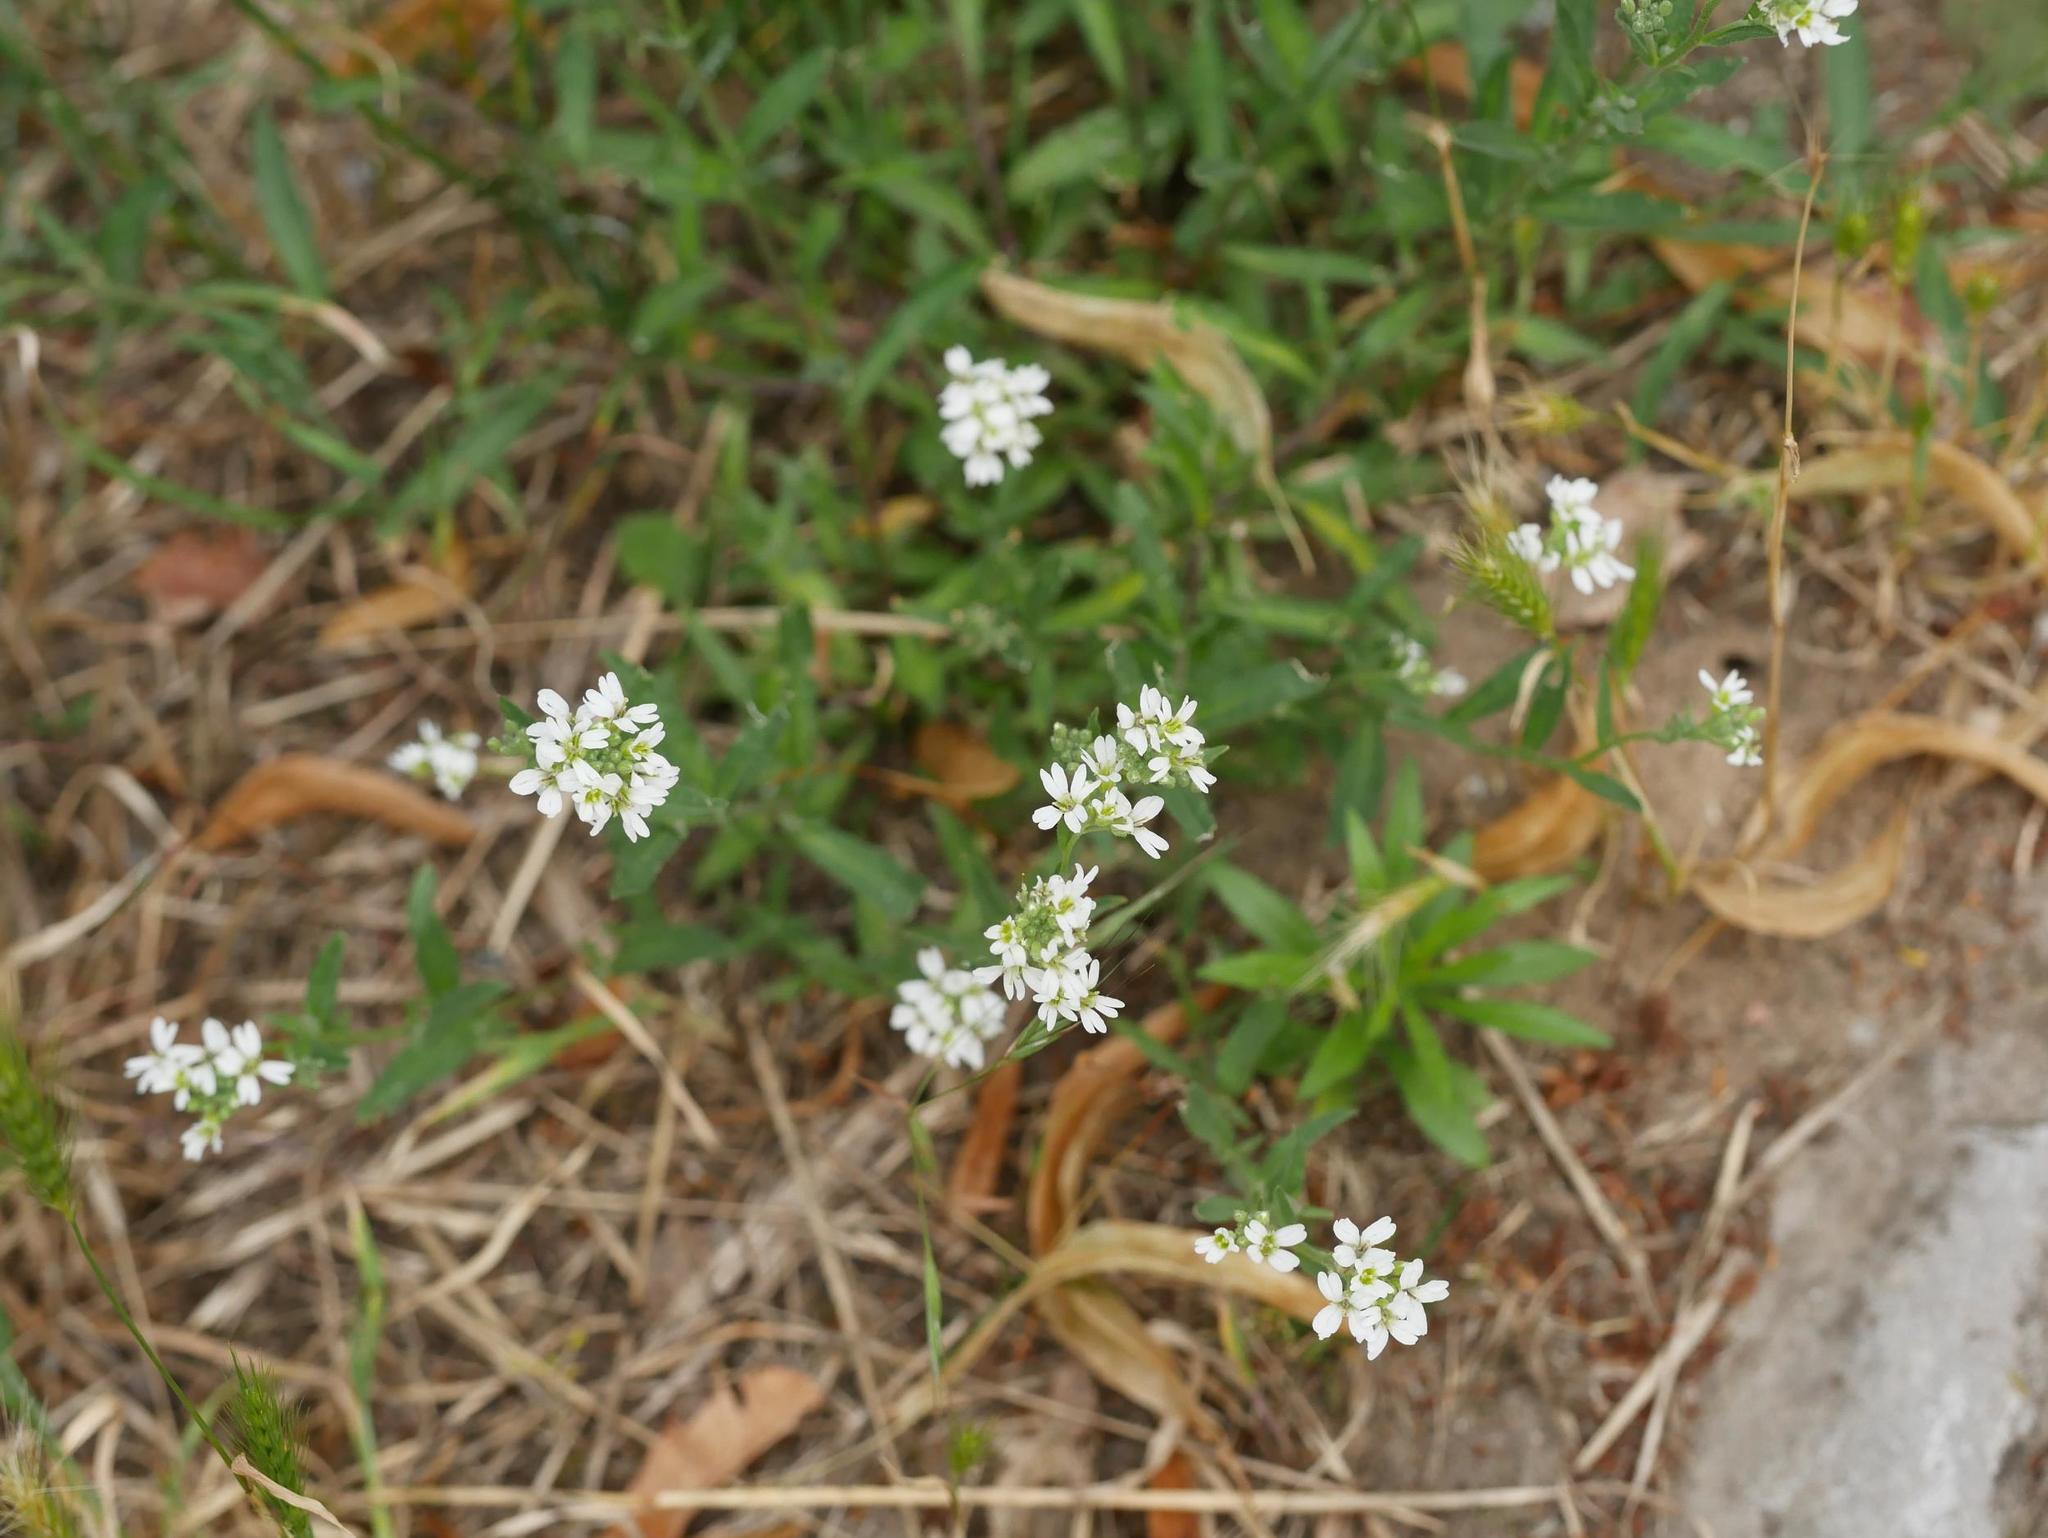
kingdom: Plantae
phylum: Tracheophyta
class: Magnoliopsida
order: Brassicales
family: Brassicaceae
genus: Berteroa
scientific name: Berteroa incana
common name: Hoary alison
